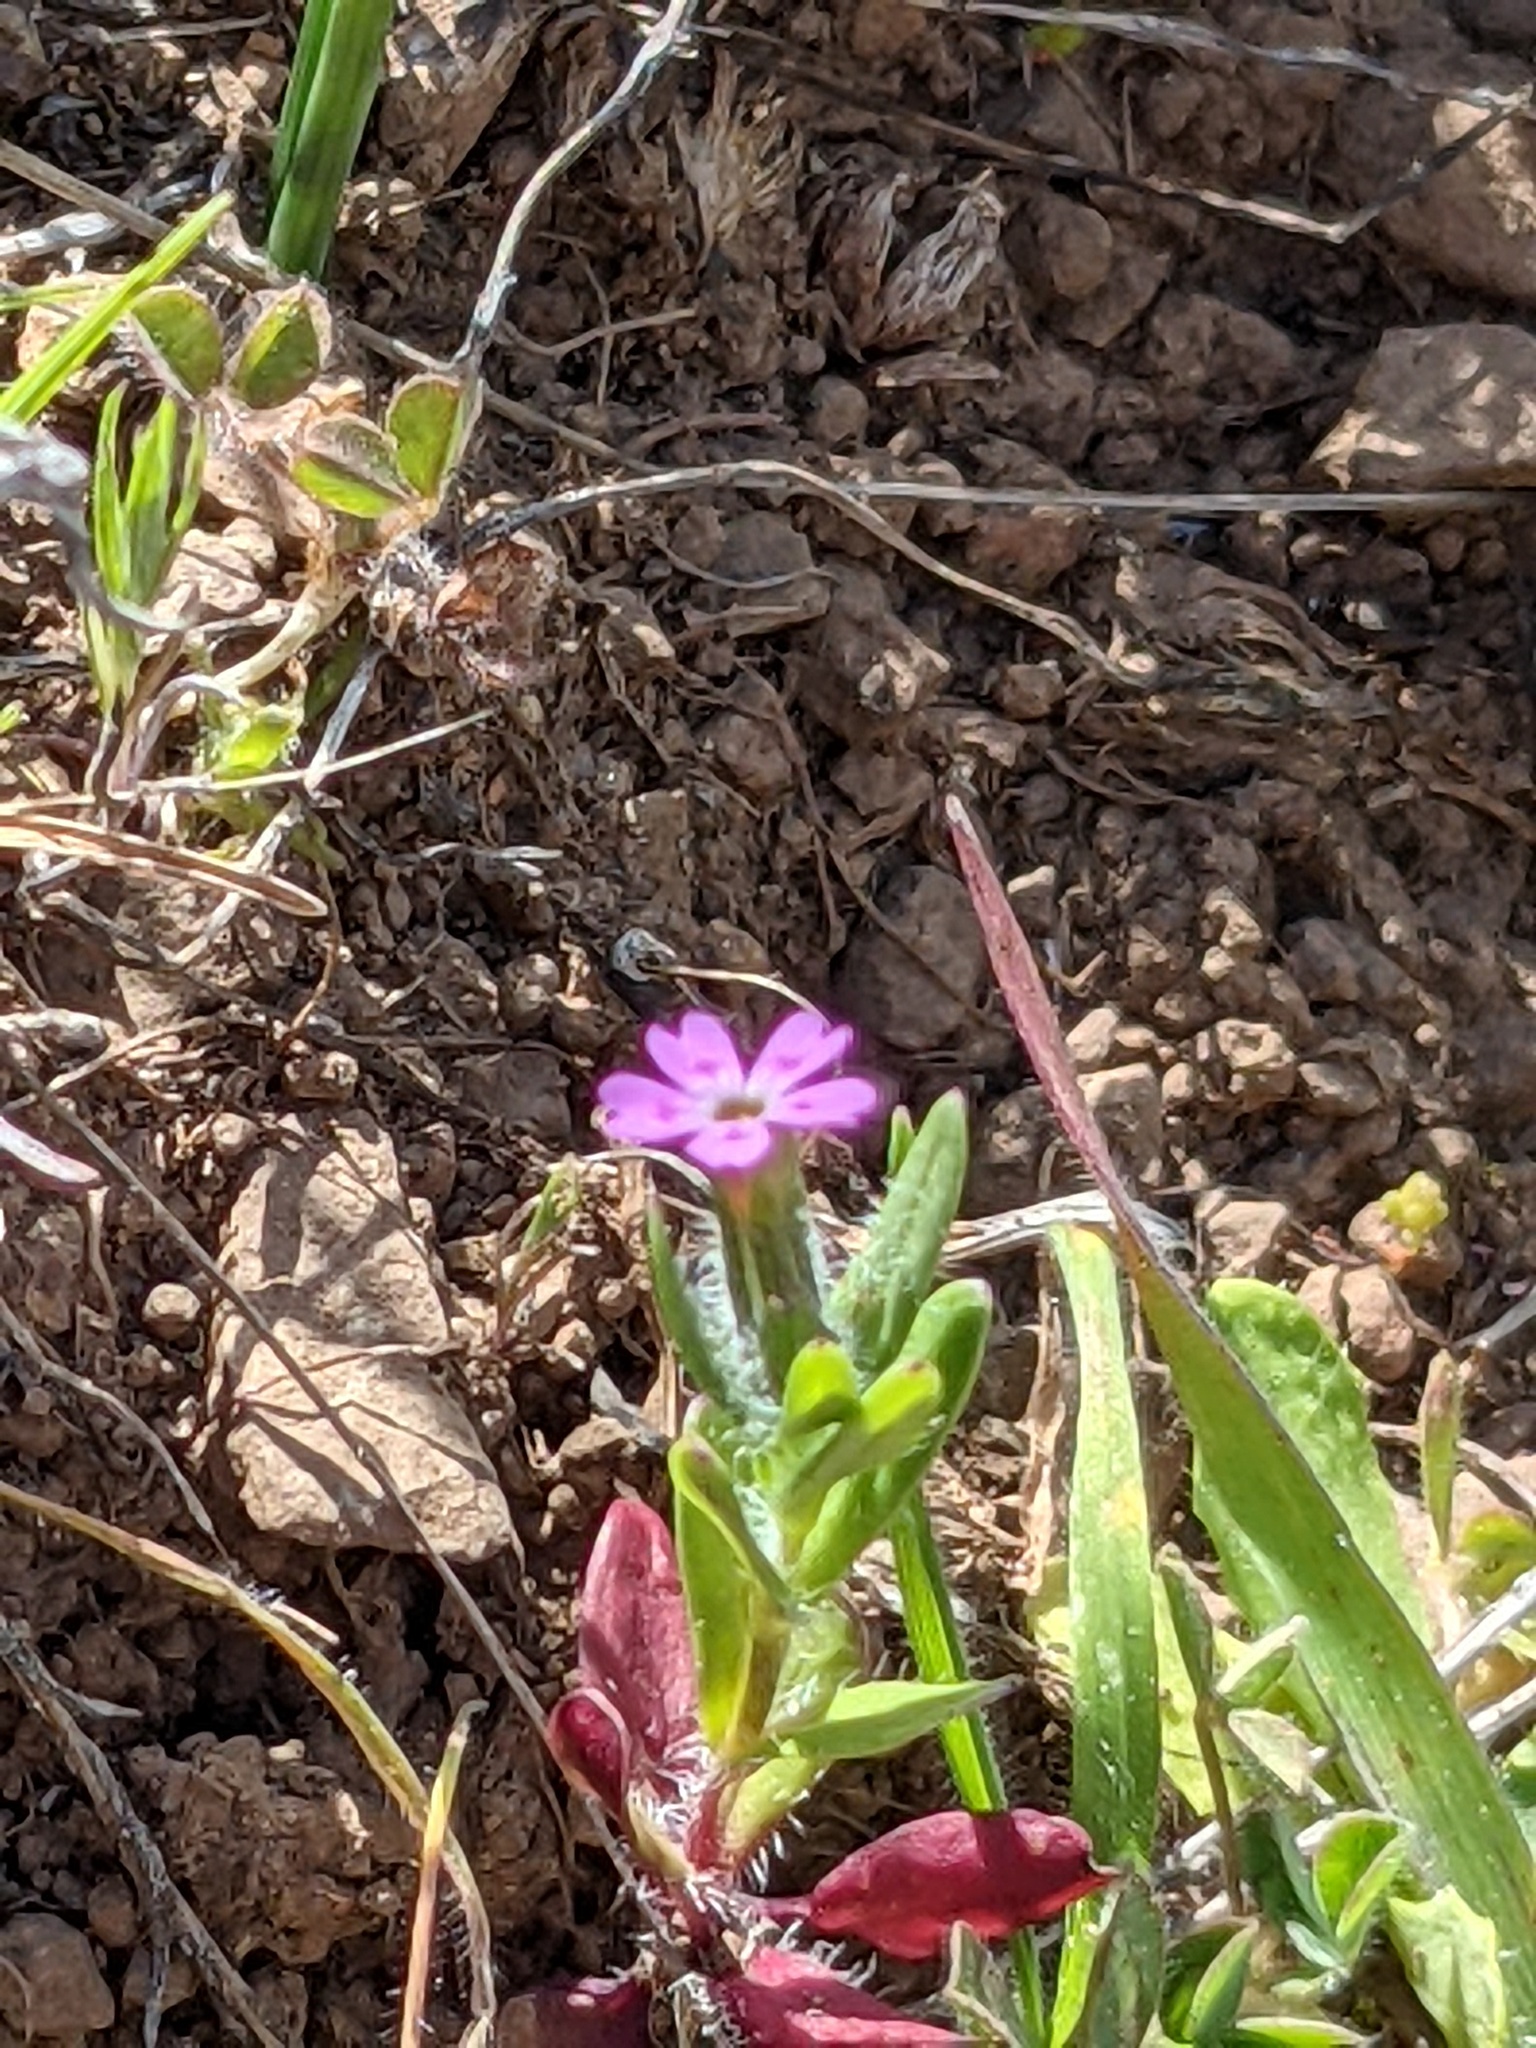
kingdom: Plantae
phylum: Tracheophyta
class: Magnoliopsida
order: Ericales
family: Polemoniaceae
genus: Phlox
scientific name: Phlox gracilis
